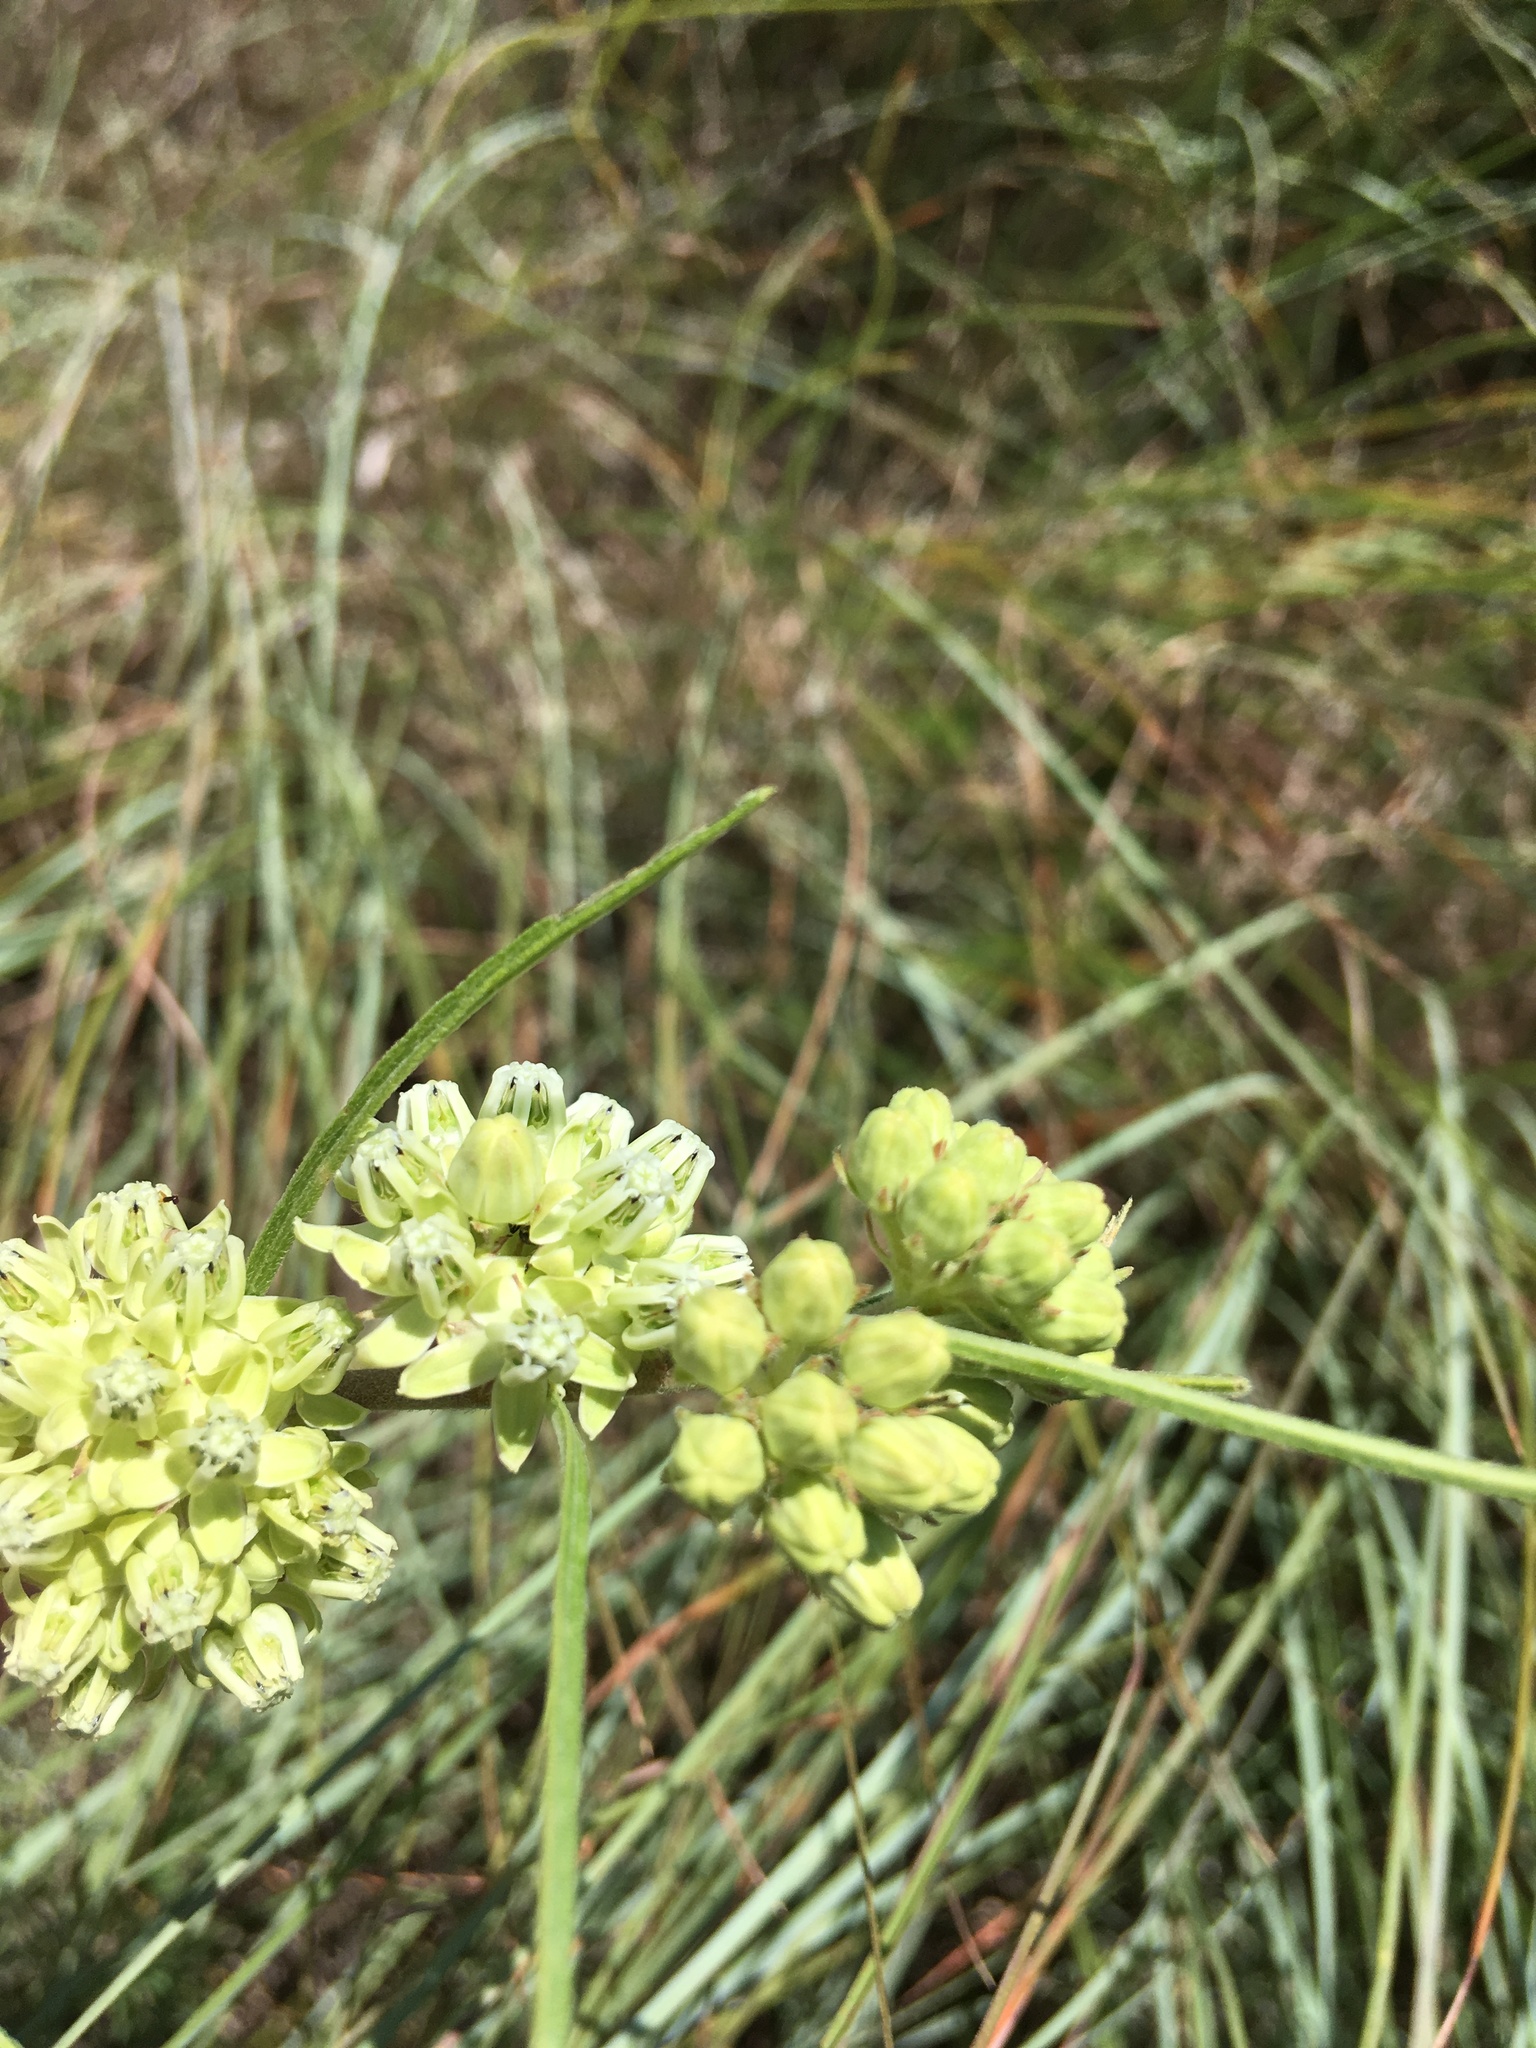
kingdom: Plantae
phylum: Tracheophyta
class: Magnoliopsida
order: Gentianales
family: Apocynaceae
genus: Asclepias
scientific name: Asclepias stenophylla
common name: Narrow-leaf milkweed
